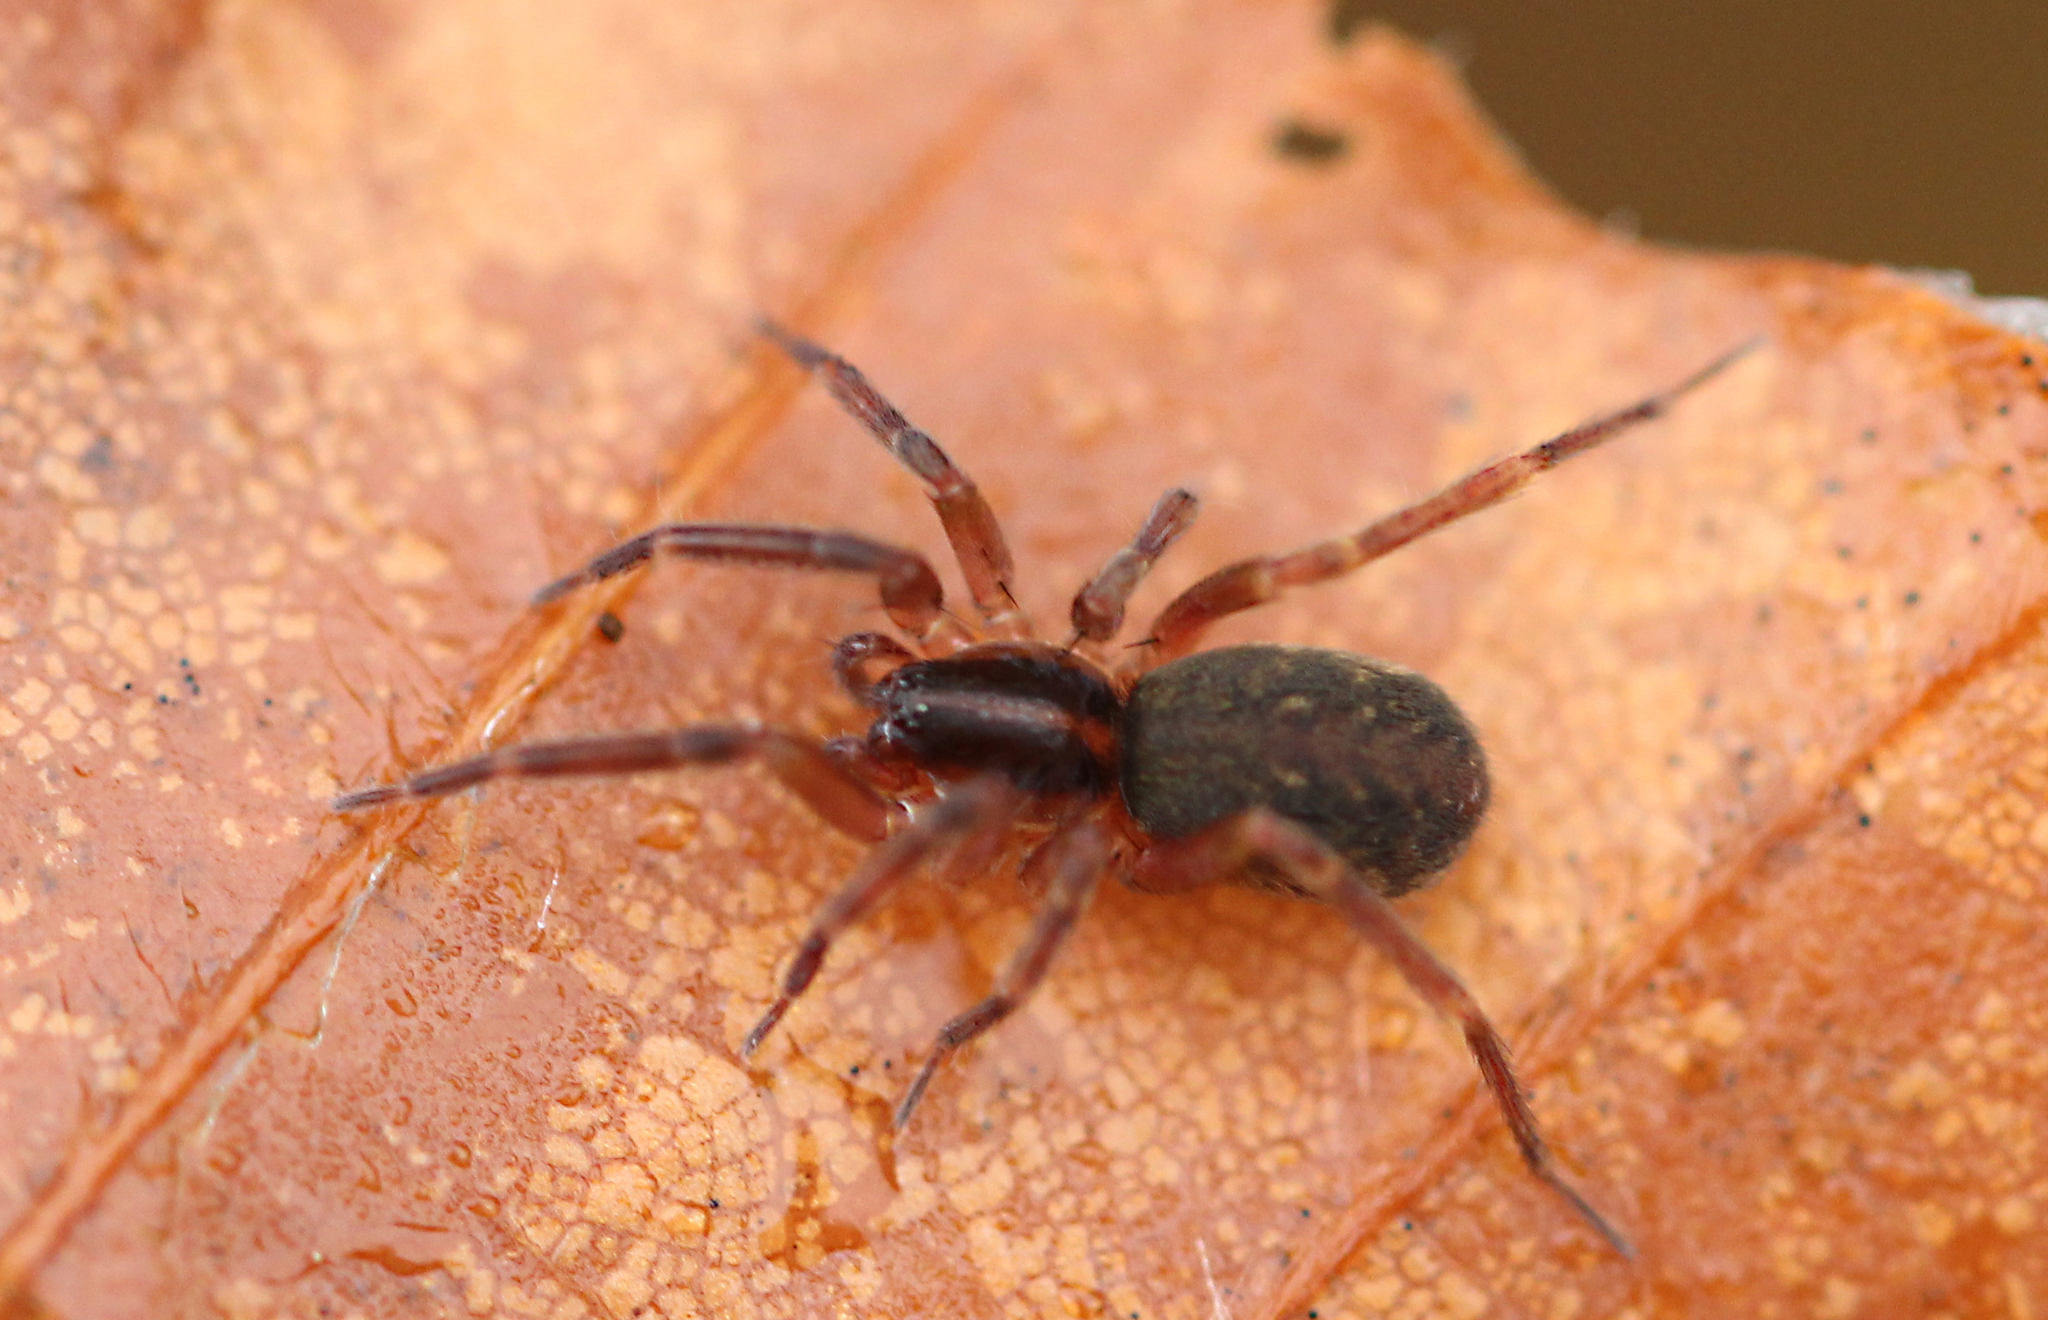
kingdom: Animalia
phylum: Arthropoda
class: Arachnida
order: Araneae
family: Liocranidae
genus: Scotina
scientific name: Scotina celans
